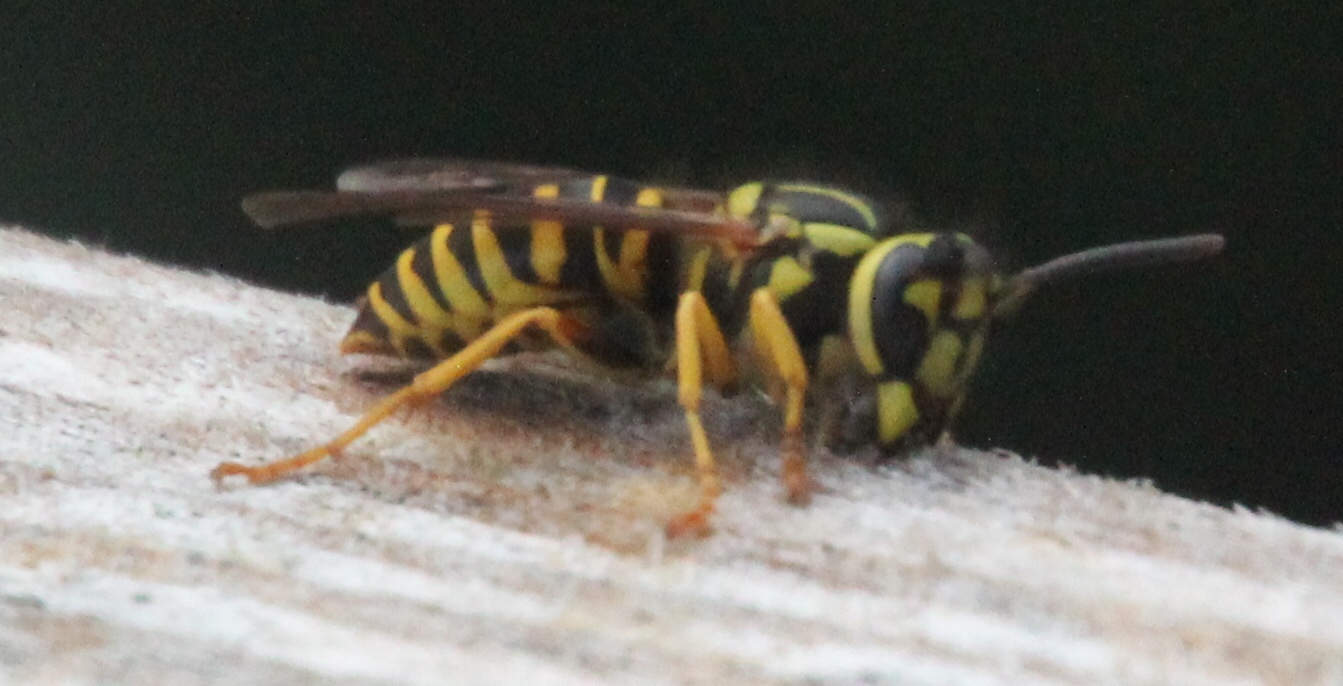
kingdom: Animalia
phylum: Arthropoda
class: Insecta
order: Hymenoptera
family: Vespidae
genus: Vespula
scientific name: Vespula squamosa
